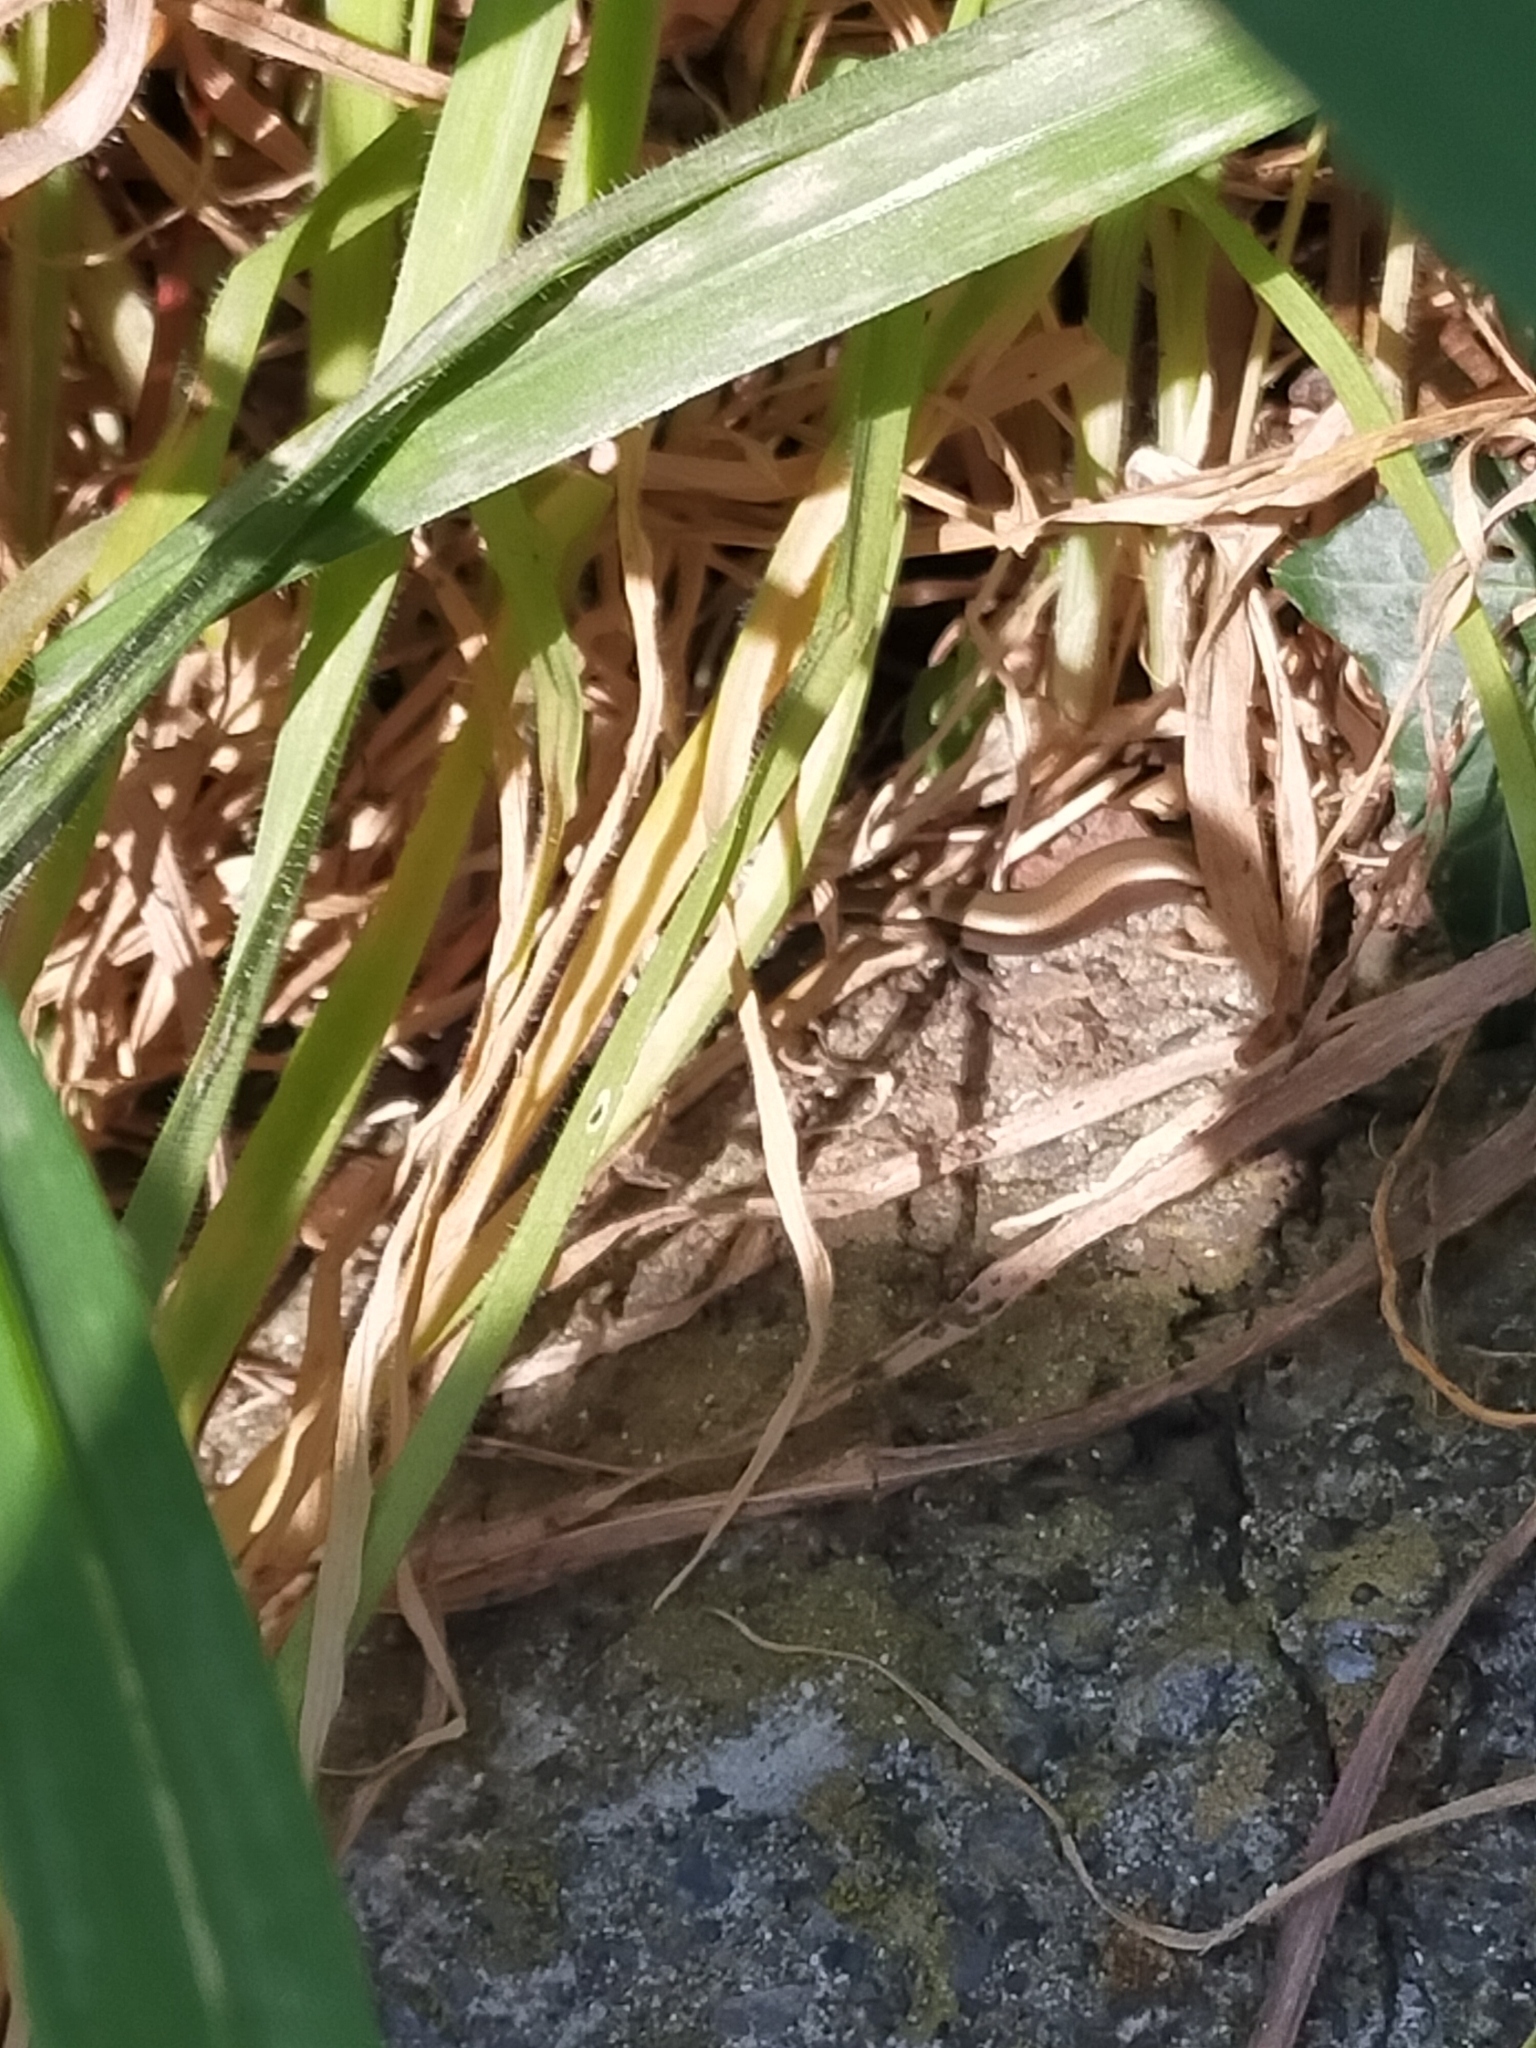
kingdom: Animalia
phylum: Chordata
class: Squamata
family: Scincidae
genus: Ablepharus
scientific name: Ablepharus kitaibelii
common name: Juniper skink
